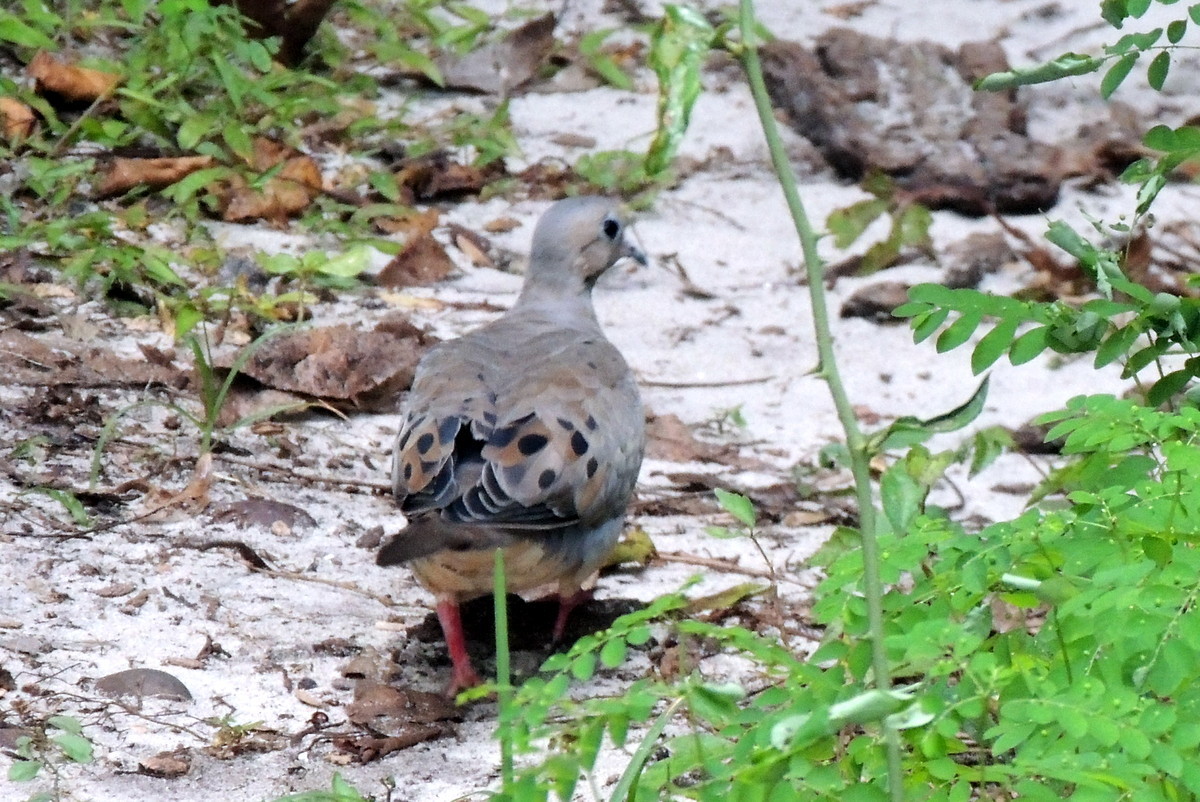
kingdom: Animalia
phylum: Chordata
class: Aves
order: Columbiformes
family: Columbidae
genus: Zenaida
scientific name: Zenaida macroura
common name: Mourning dove
